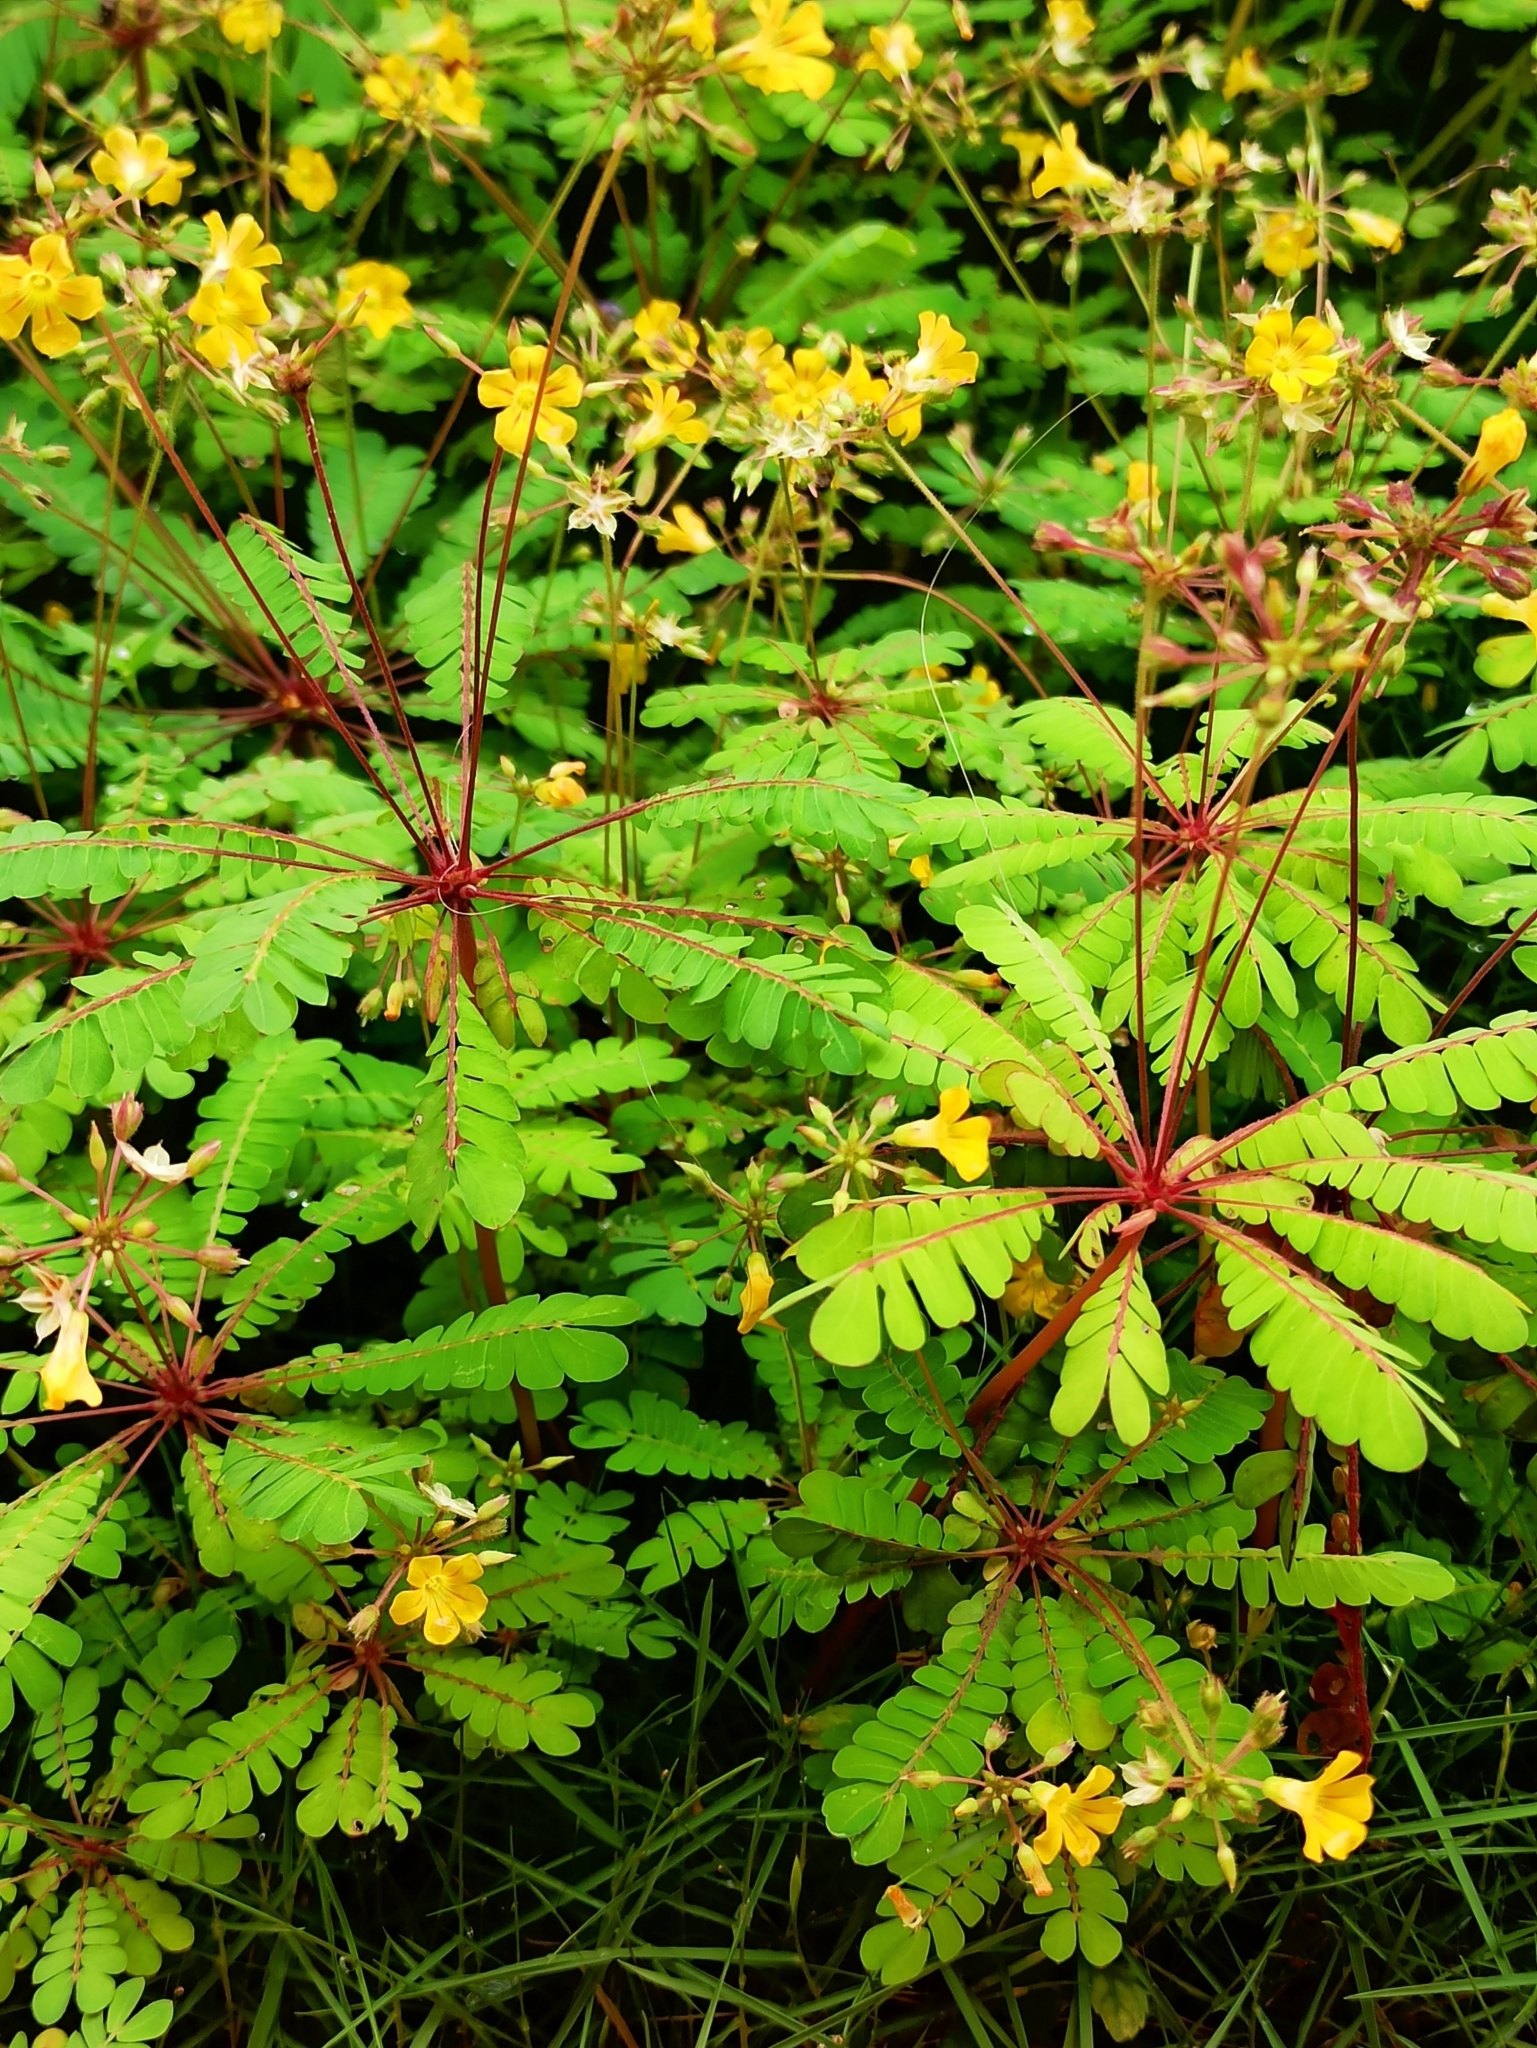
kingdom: Plantae
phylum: Tracheophyta
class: Magnoliopsida
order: Oxalidales
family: Oxalidaceae
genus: Biophytum
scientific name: Biophytum sensitivum
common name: Lifeplant
